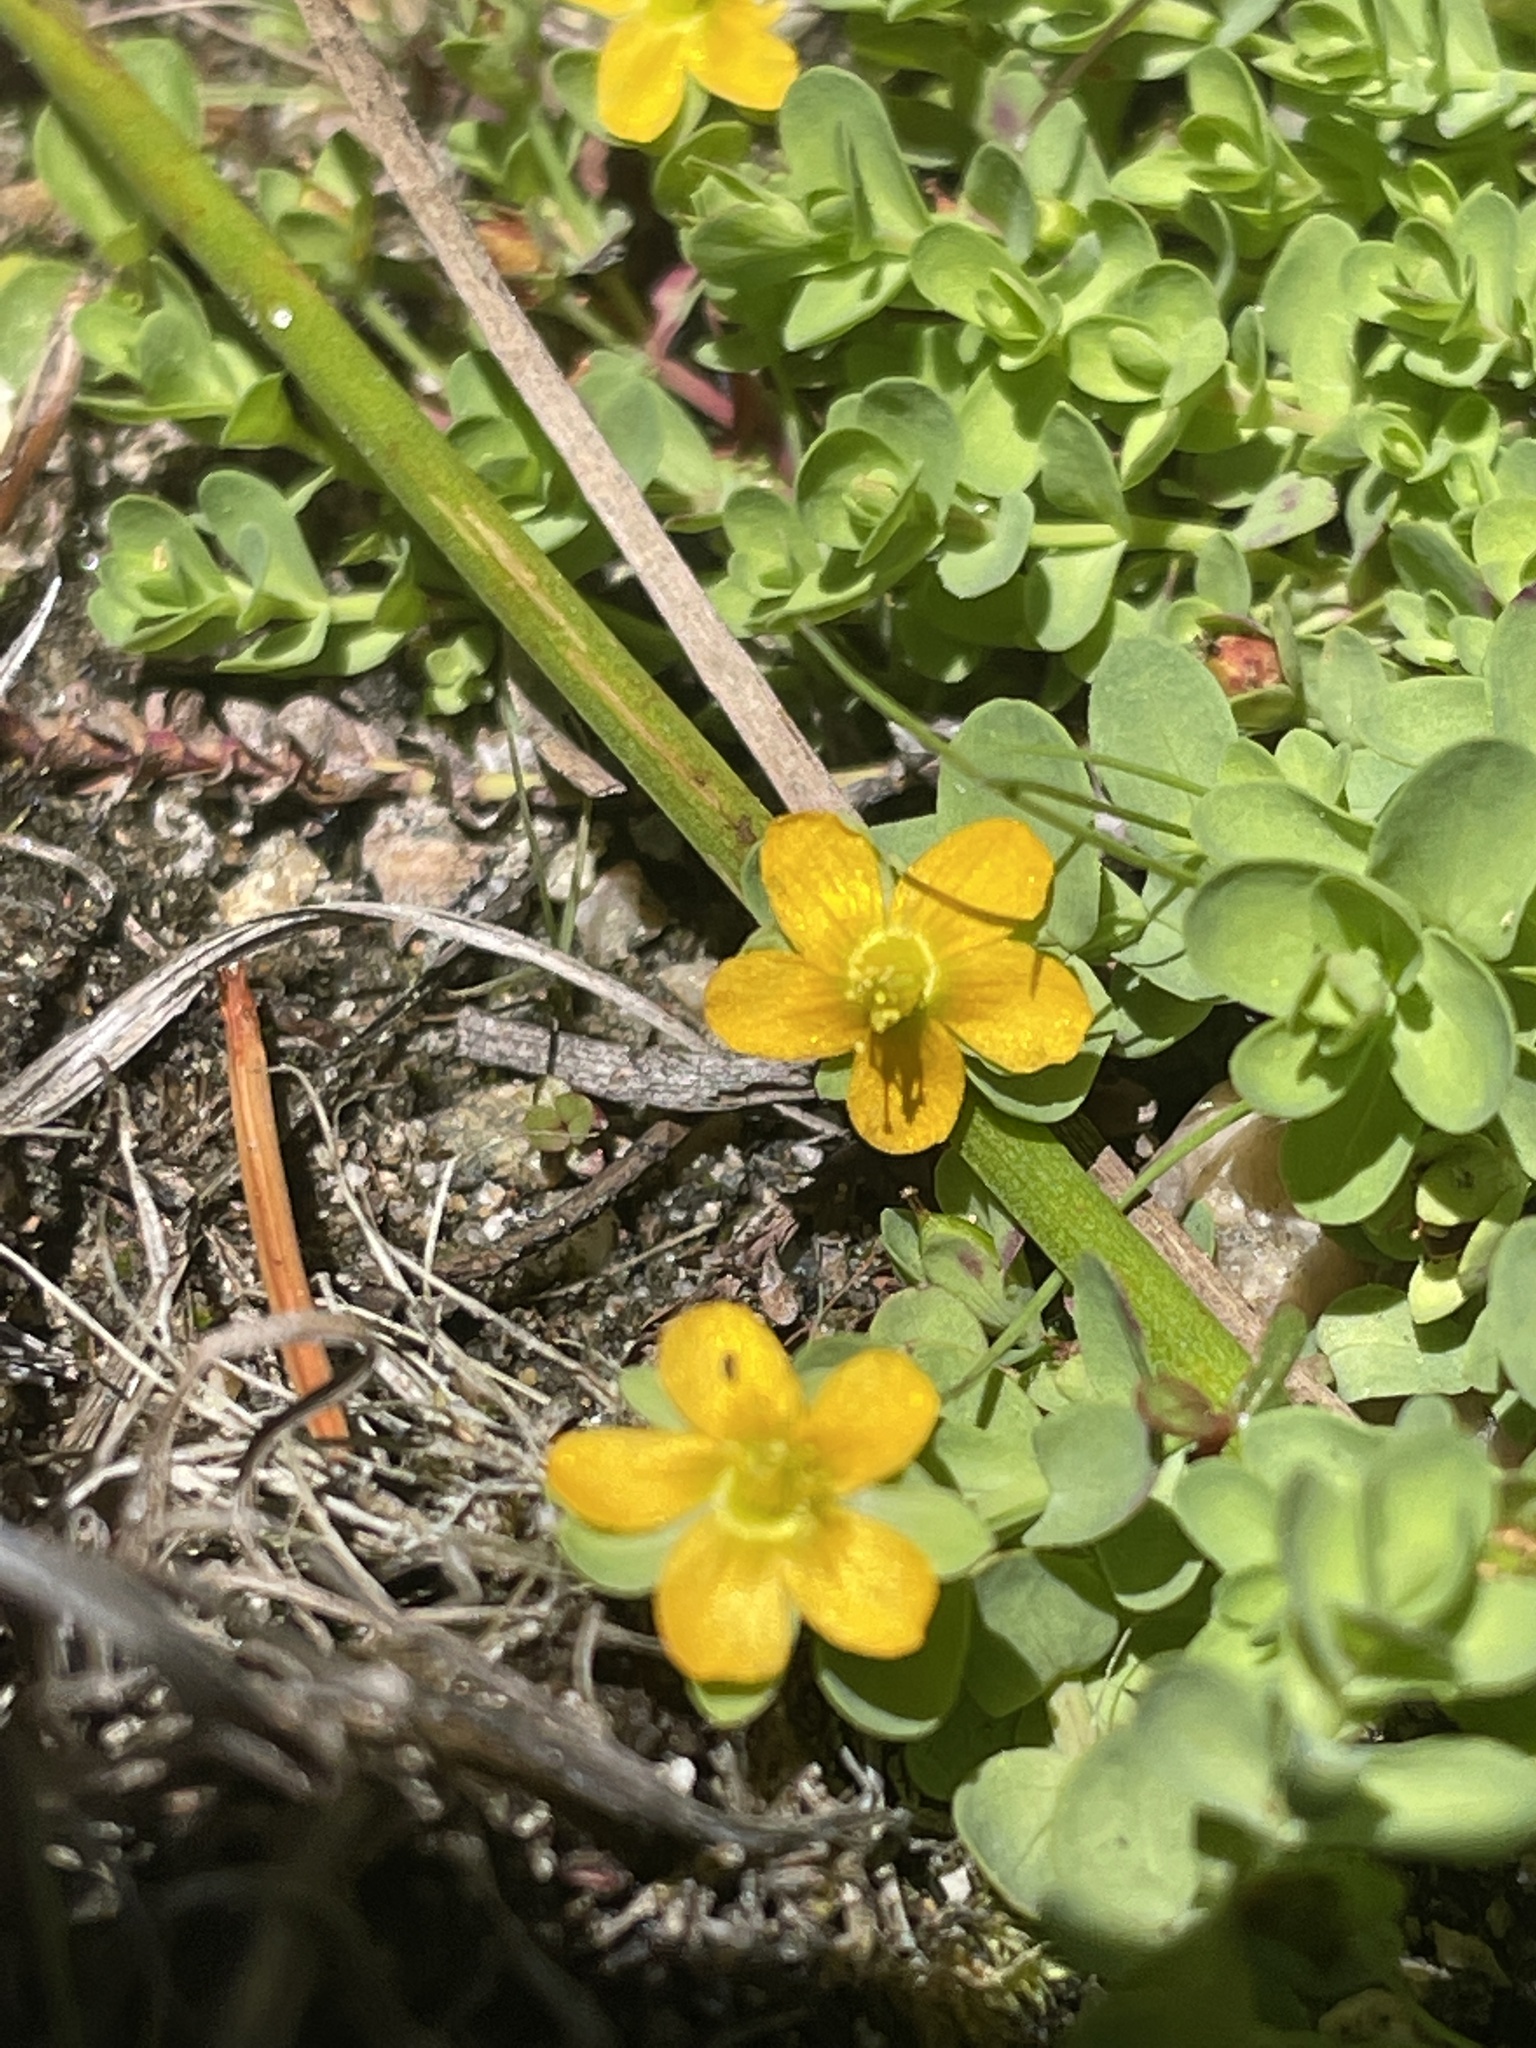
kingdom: Plantae
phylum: Tracheophyta
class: Magnoliopsida
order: Malpighiales
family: Hypericaceae
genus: Hypericum
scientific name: Hypericum anagalloides
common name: Bog st. john's-wort
